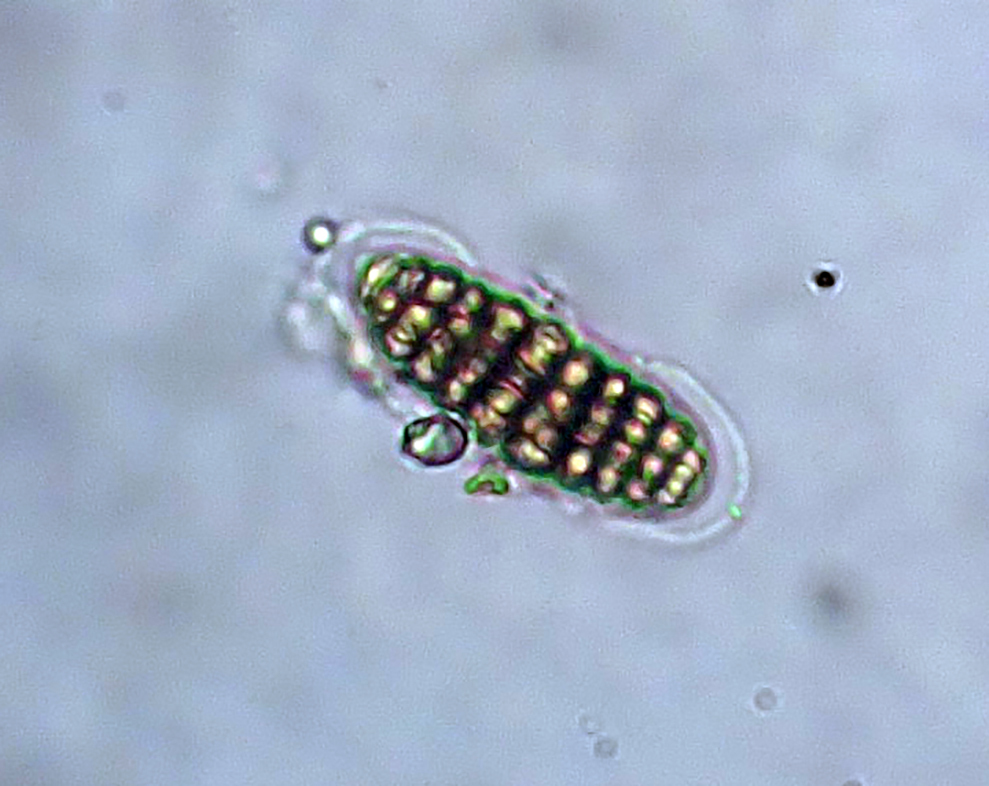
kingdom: Fungi
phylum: Ascomycota
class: Lecanoromycetes
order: Ostropales
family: Graphidaceae
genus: Thalloloma
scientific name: Thalloloma subvelata
